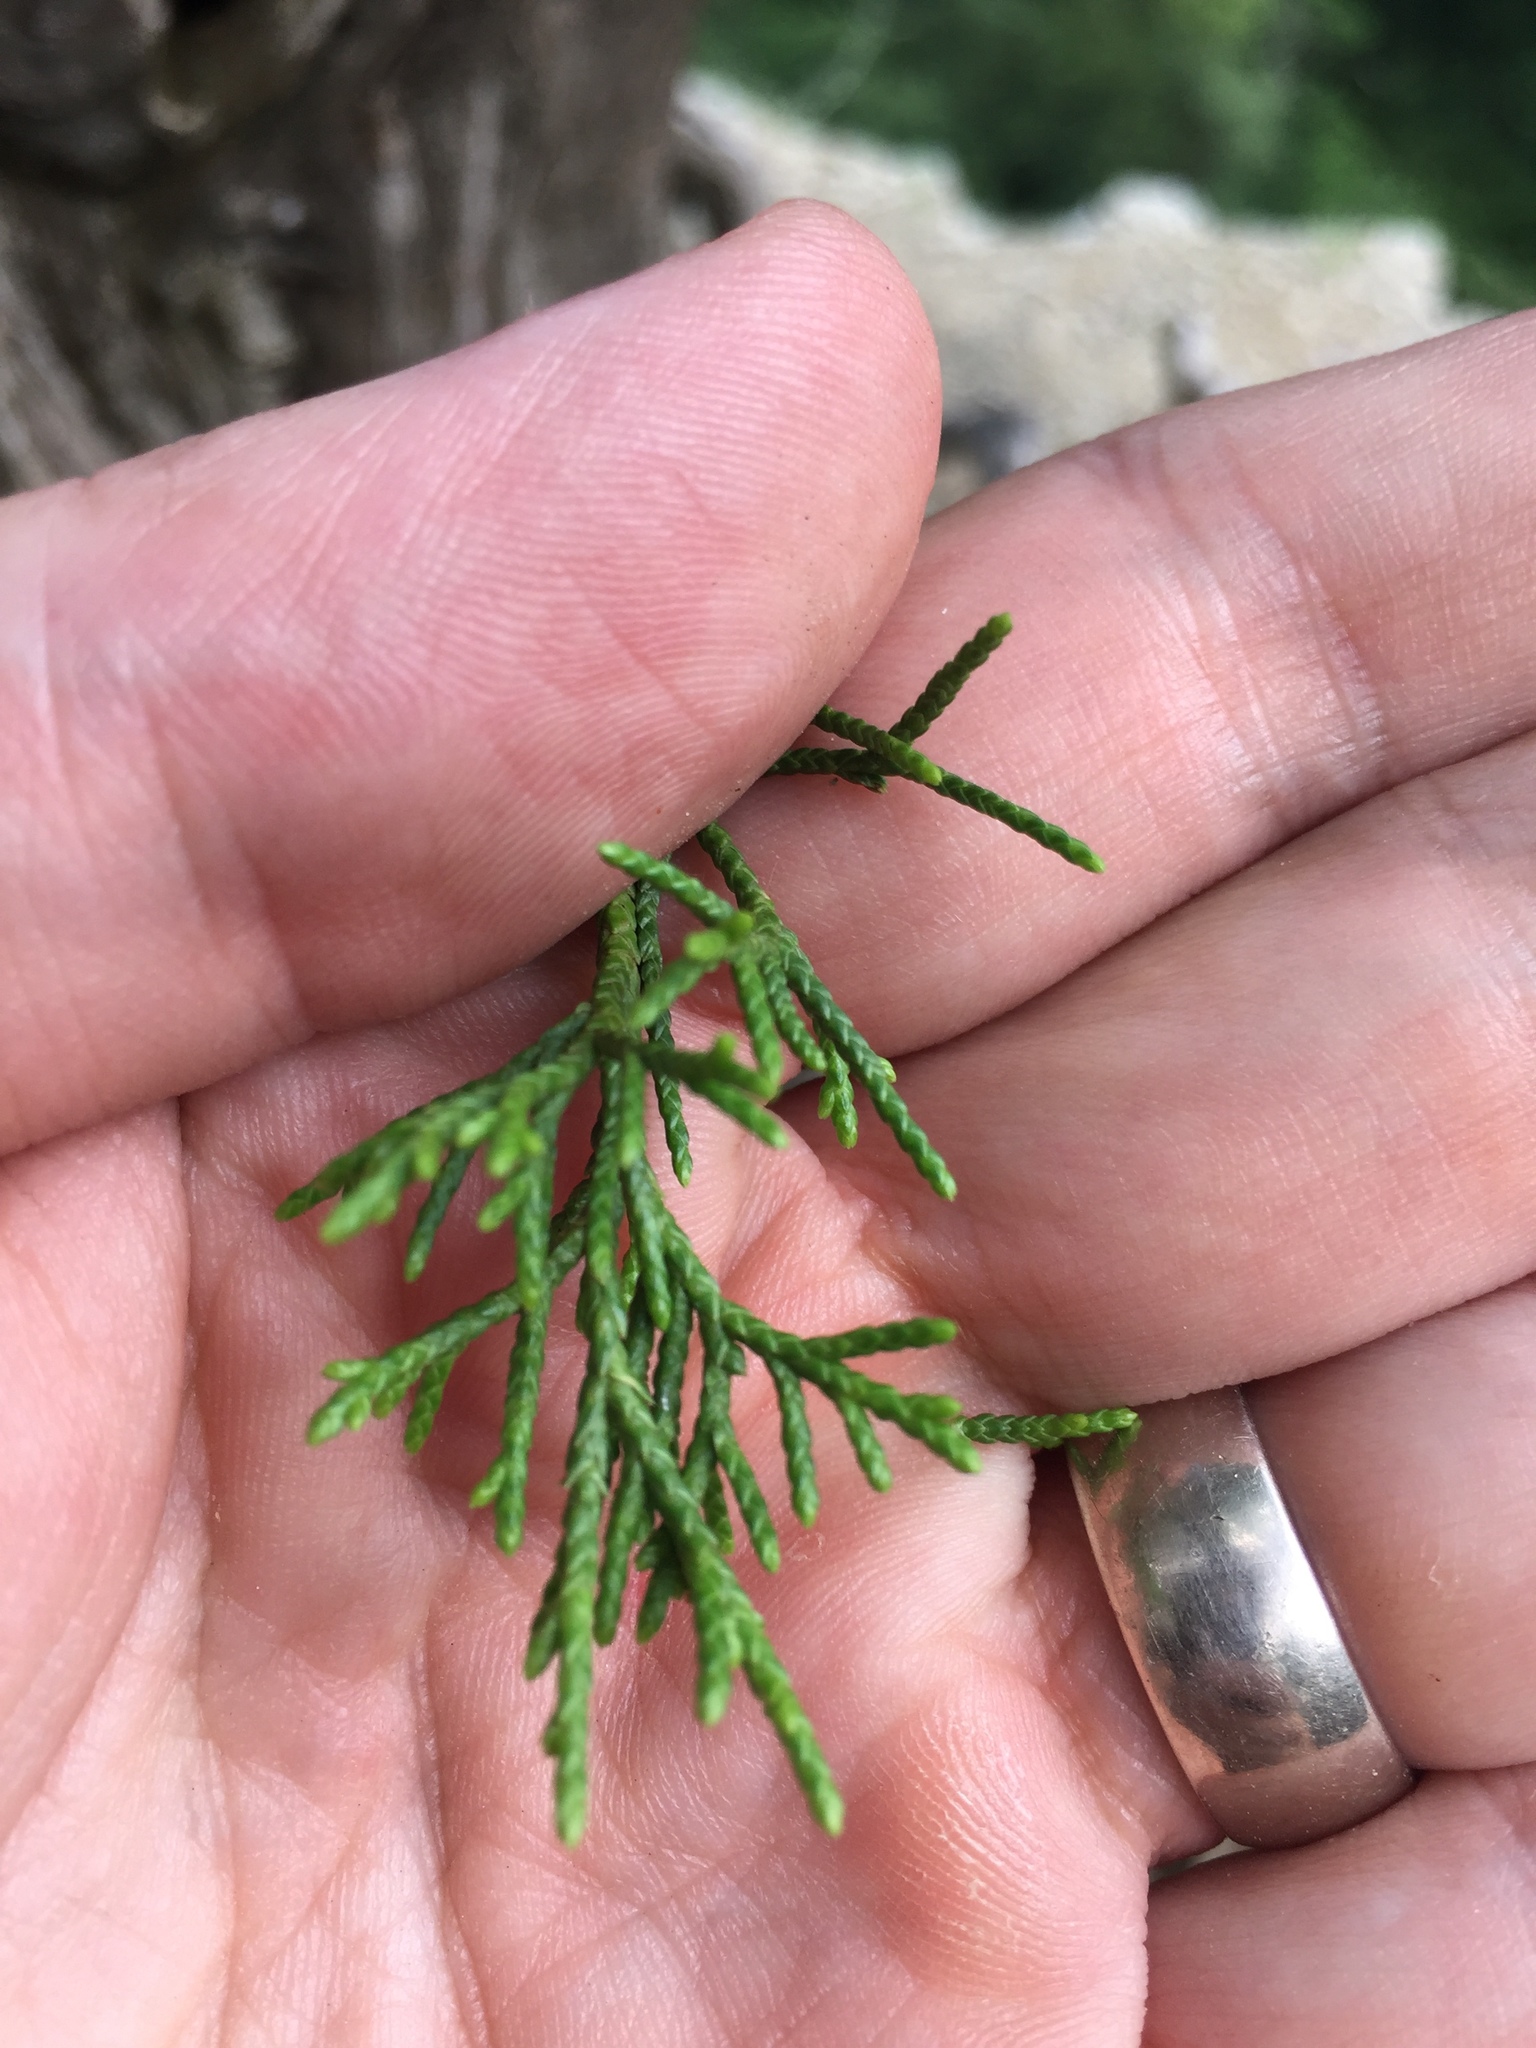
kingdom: Plantae
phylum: Tracheophyta
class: Pinopsida
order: Pinales
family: Cupressaceae
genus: Juniperus
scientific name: Juniperus virginiana
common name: Red juniper
